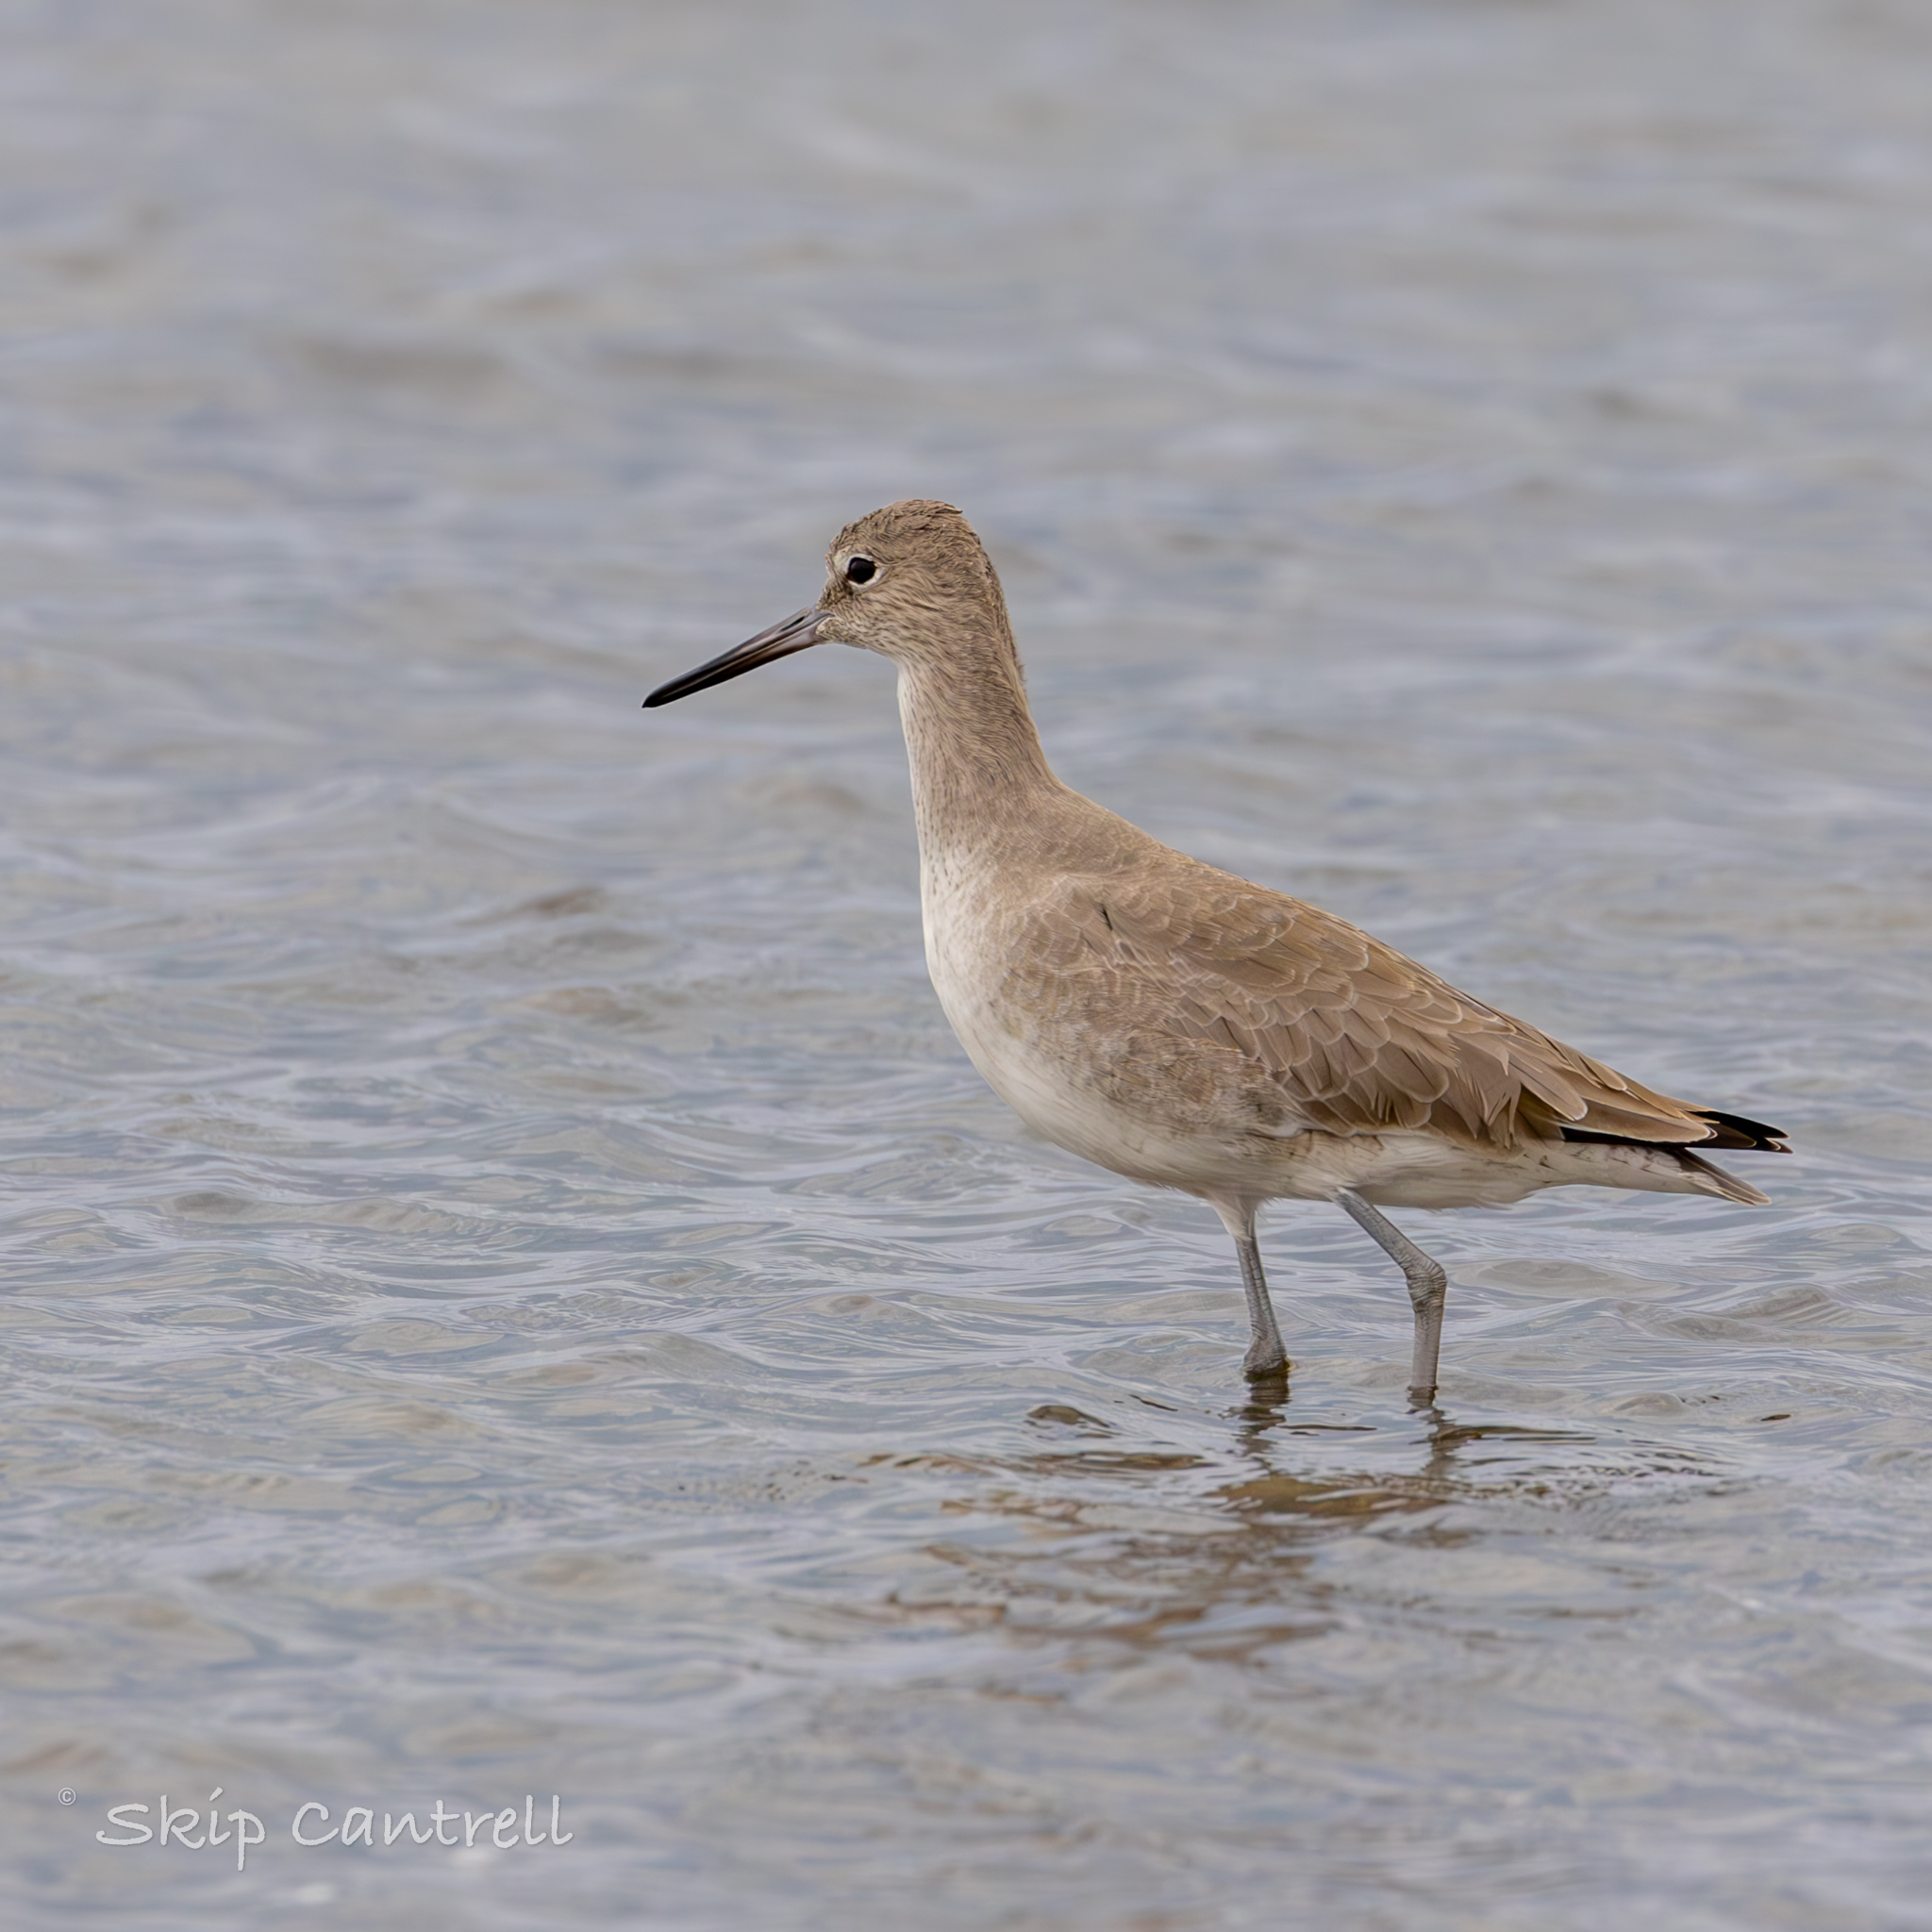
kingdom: Animalia
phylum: Chordata
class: Aves
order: Charadriiformes
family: Scolopacidae
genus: Tringa
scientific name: Tringa semipalmata
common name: Willet
